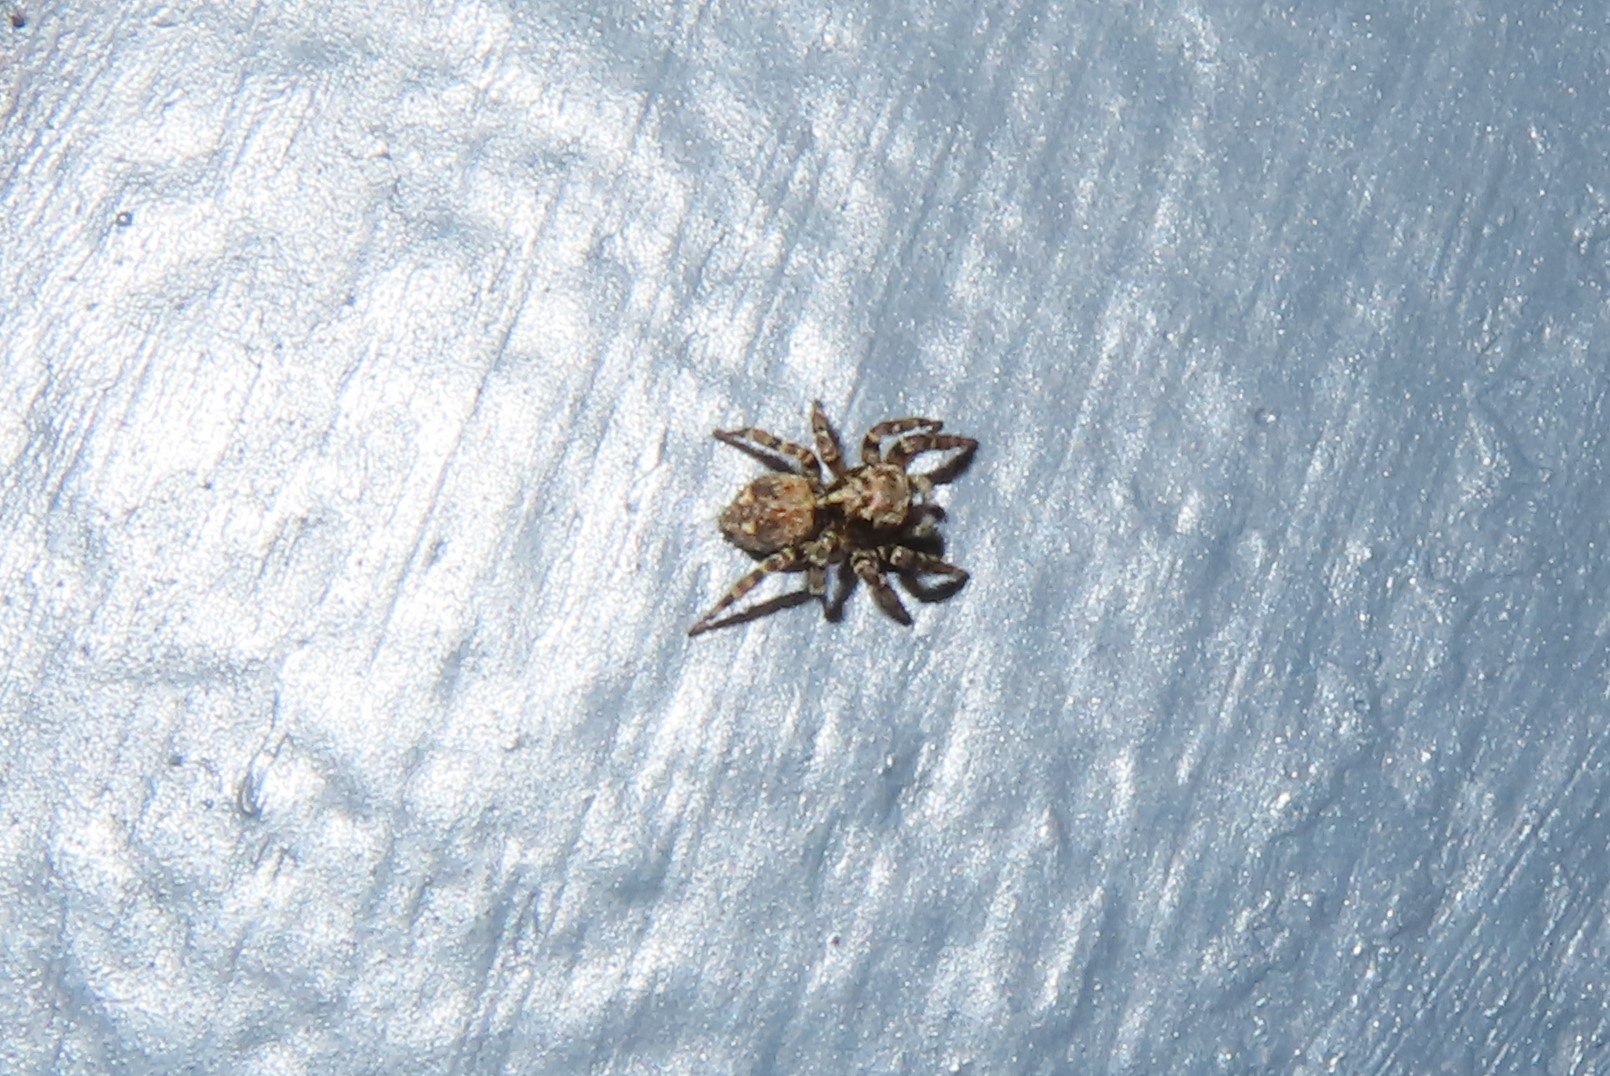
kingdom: Animalia
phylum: Arthropoda
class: Arachnida
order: Araneae
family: Salticidae
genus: Pseudeuophrys
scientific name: Pseudeuophrys erratica
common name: Jumping spider
